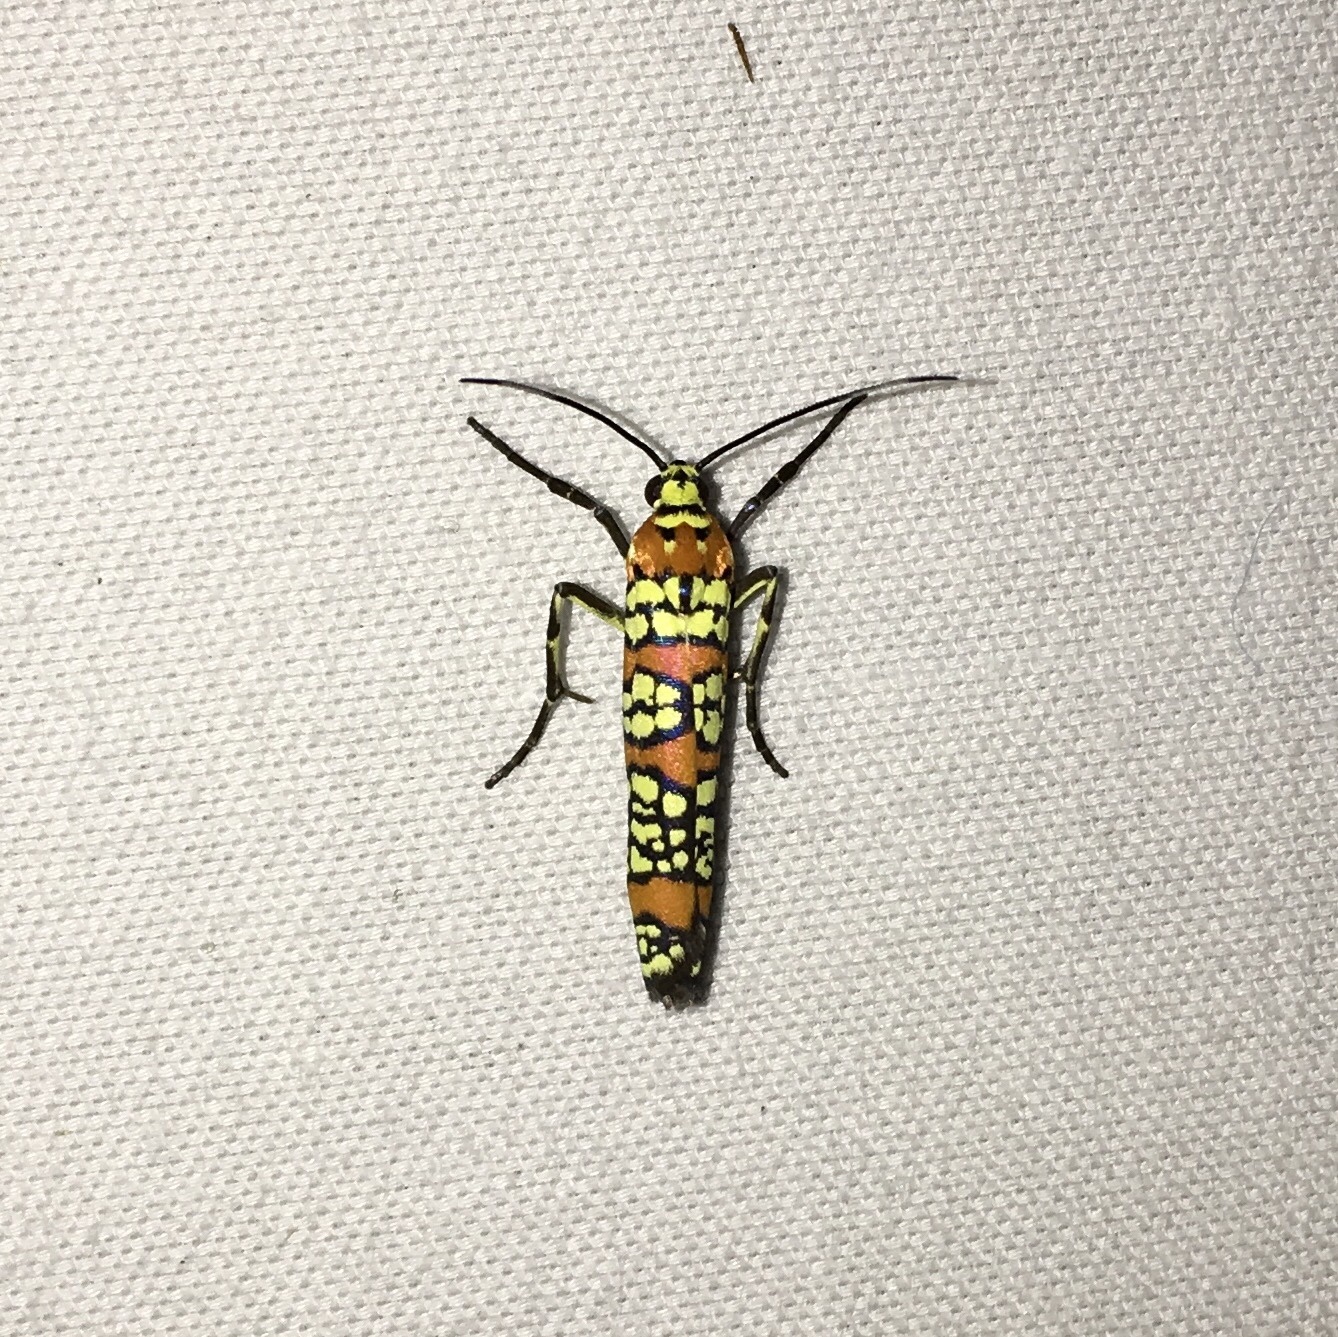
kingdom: Animalia
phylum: Arthropoda
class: Insecta
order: Lepidoptera
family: Attevidae
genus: Atteva
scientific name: Atteva punctella
